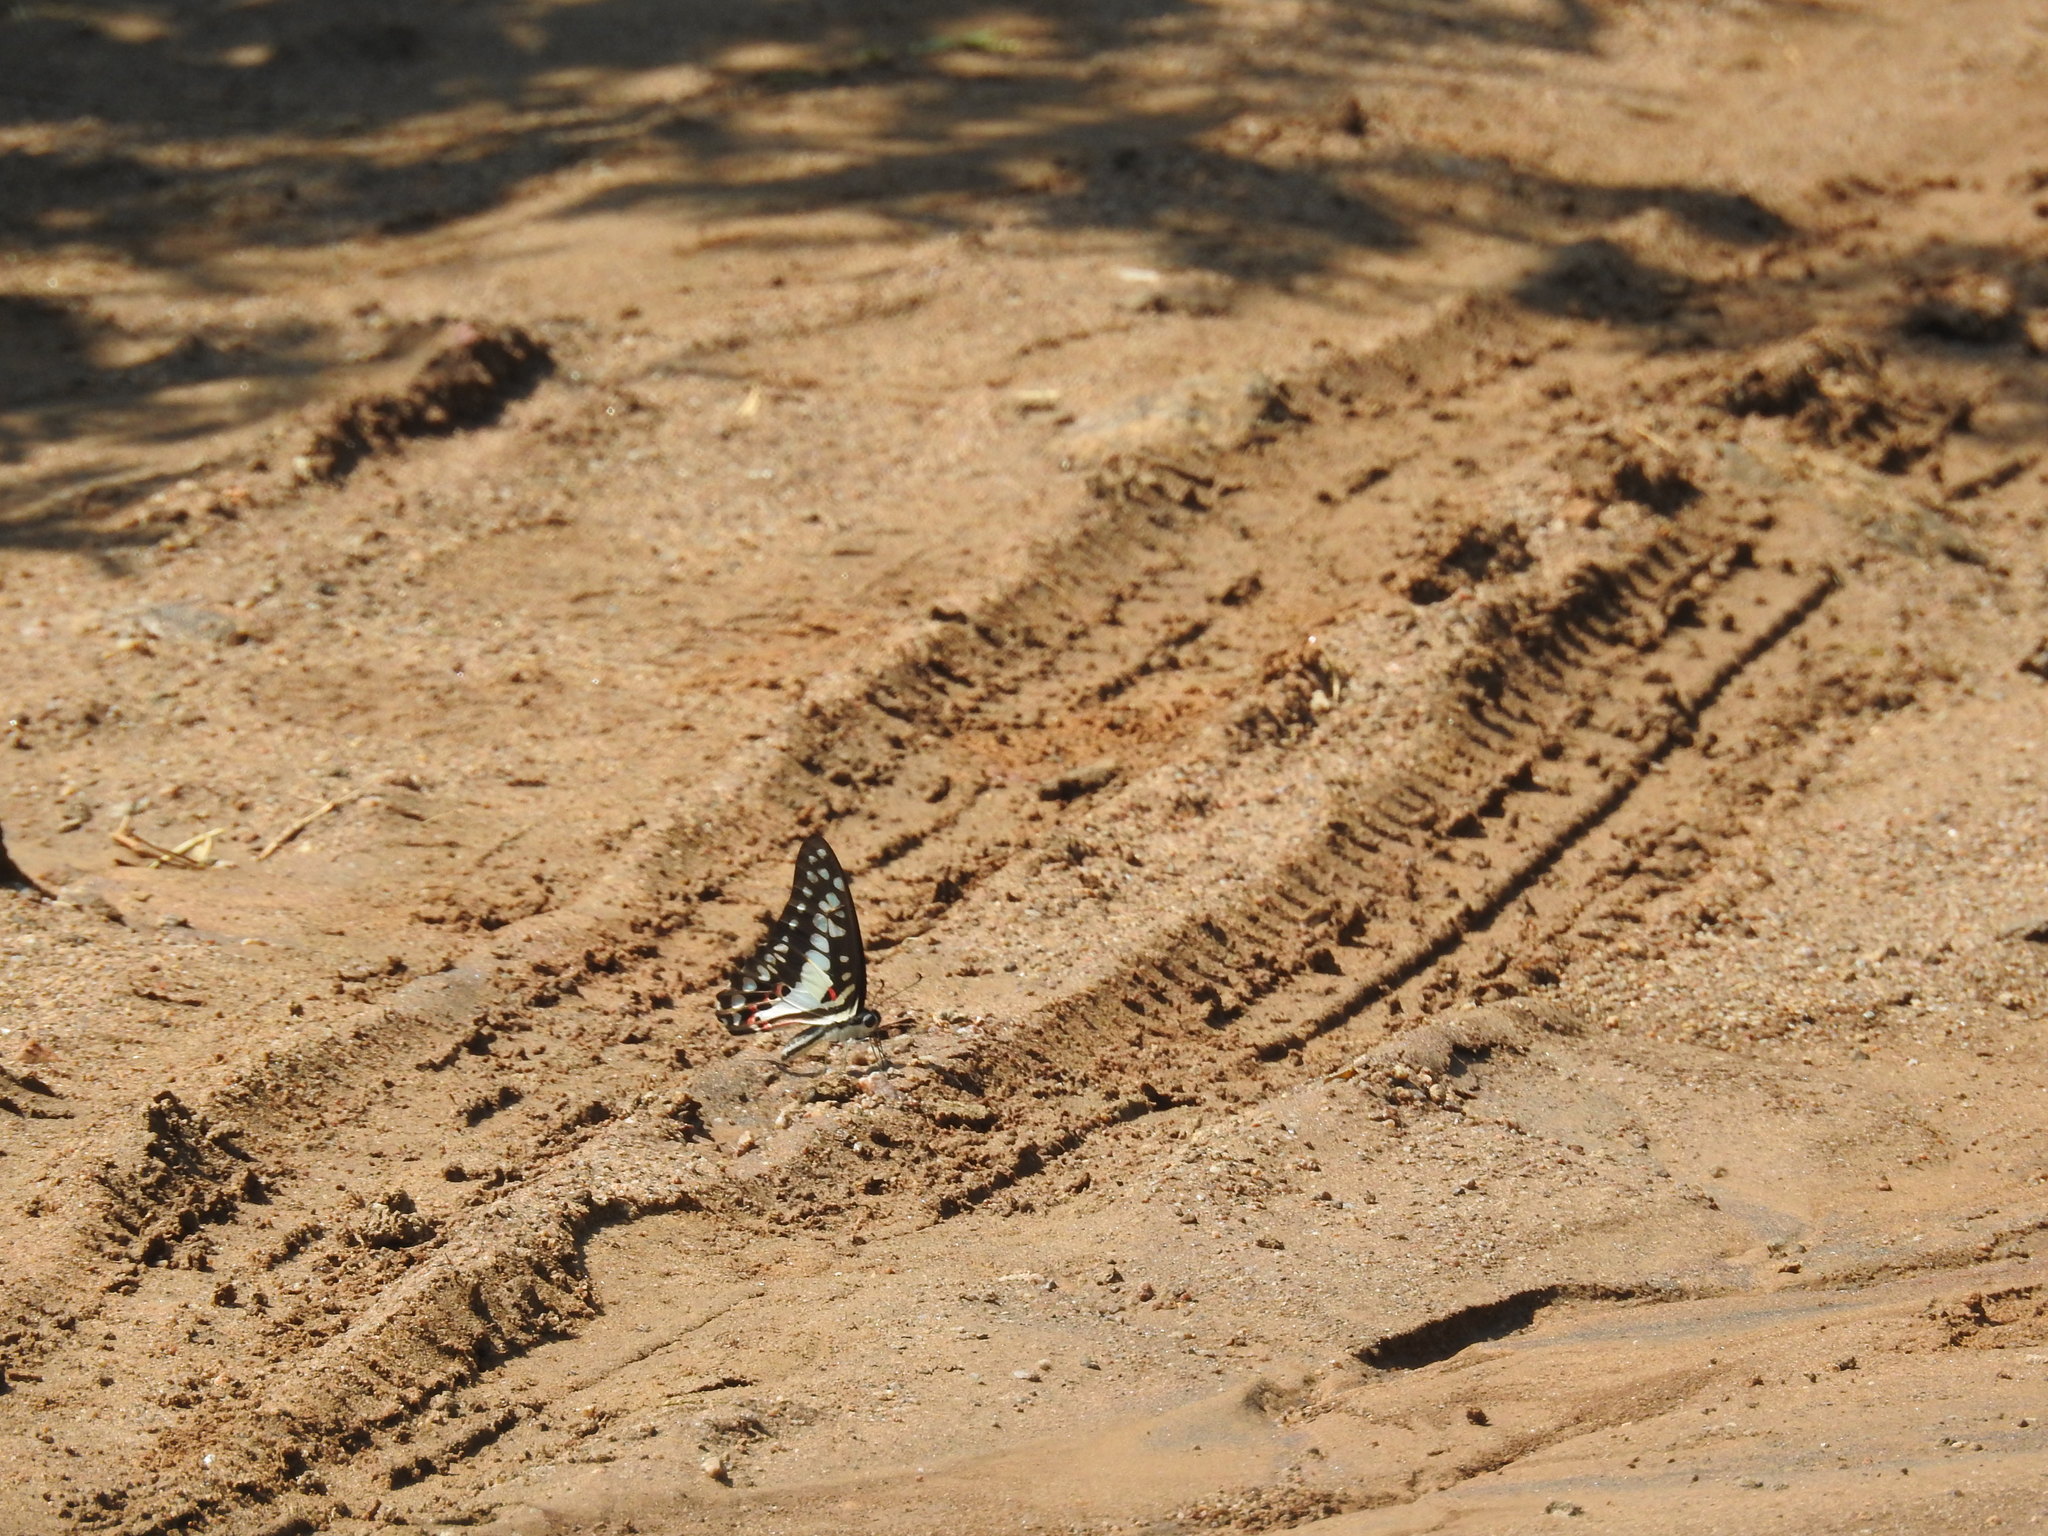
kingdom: Animalia
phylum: Arthropoda
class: Insecta
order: Lepidoptera
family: Papilionidae
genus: Graphium
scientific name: Graphium doson
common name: Common jay
